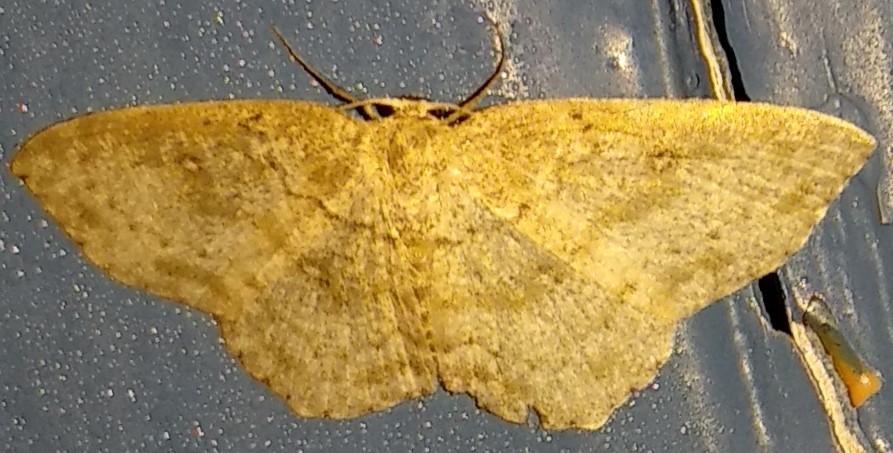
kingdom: Animalia
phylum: Arthropoda
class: Insecta
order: Lepidoptera
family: Geometridae
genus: Cyclophora
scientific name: Cyclophora pendulinaria
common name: Sweet fern geometer
